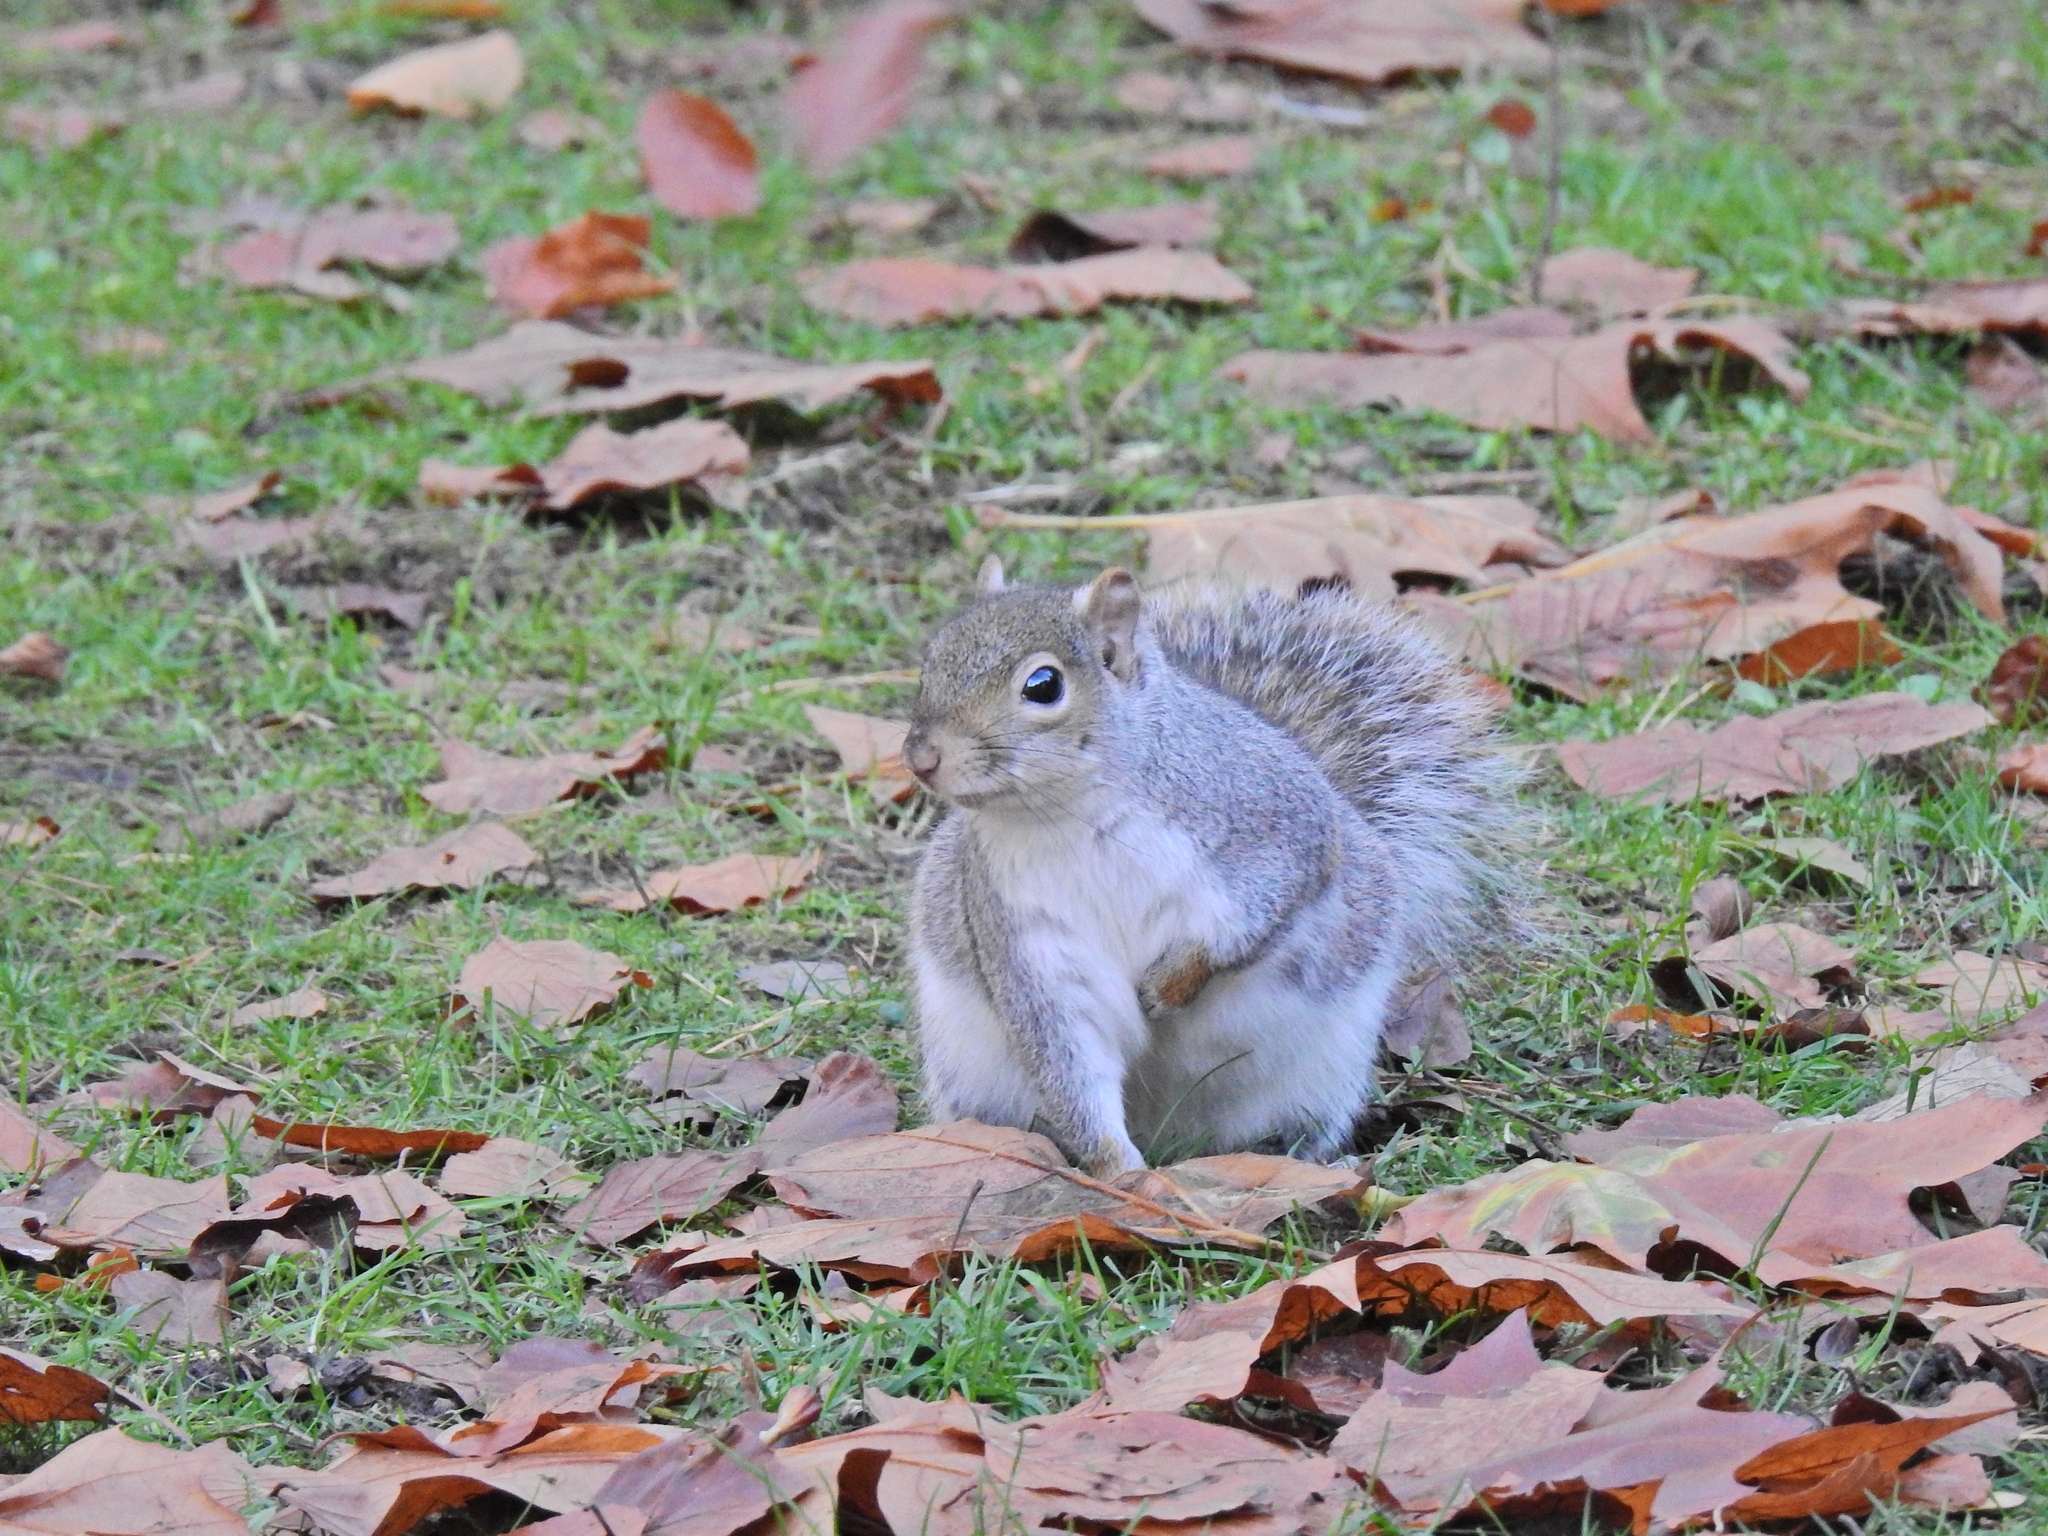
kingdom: Animalia
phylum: Chordata
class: Mammalia
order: Rodentia
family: Sciuridae
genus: Sciurus
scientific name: Sciurus carolinensis
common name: Eastern gray squirrel
